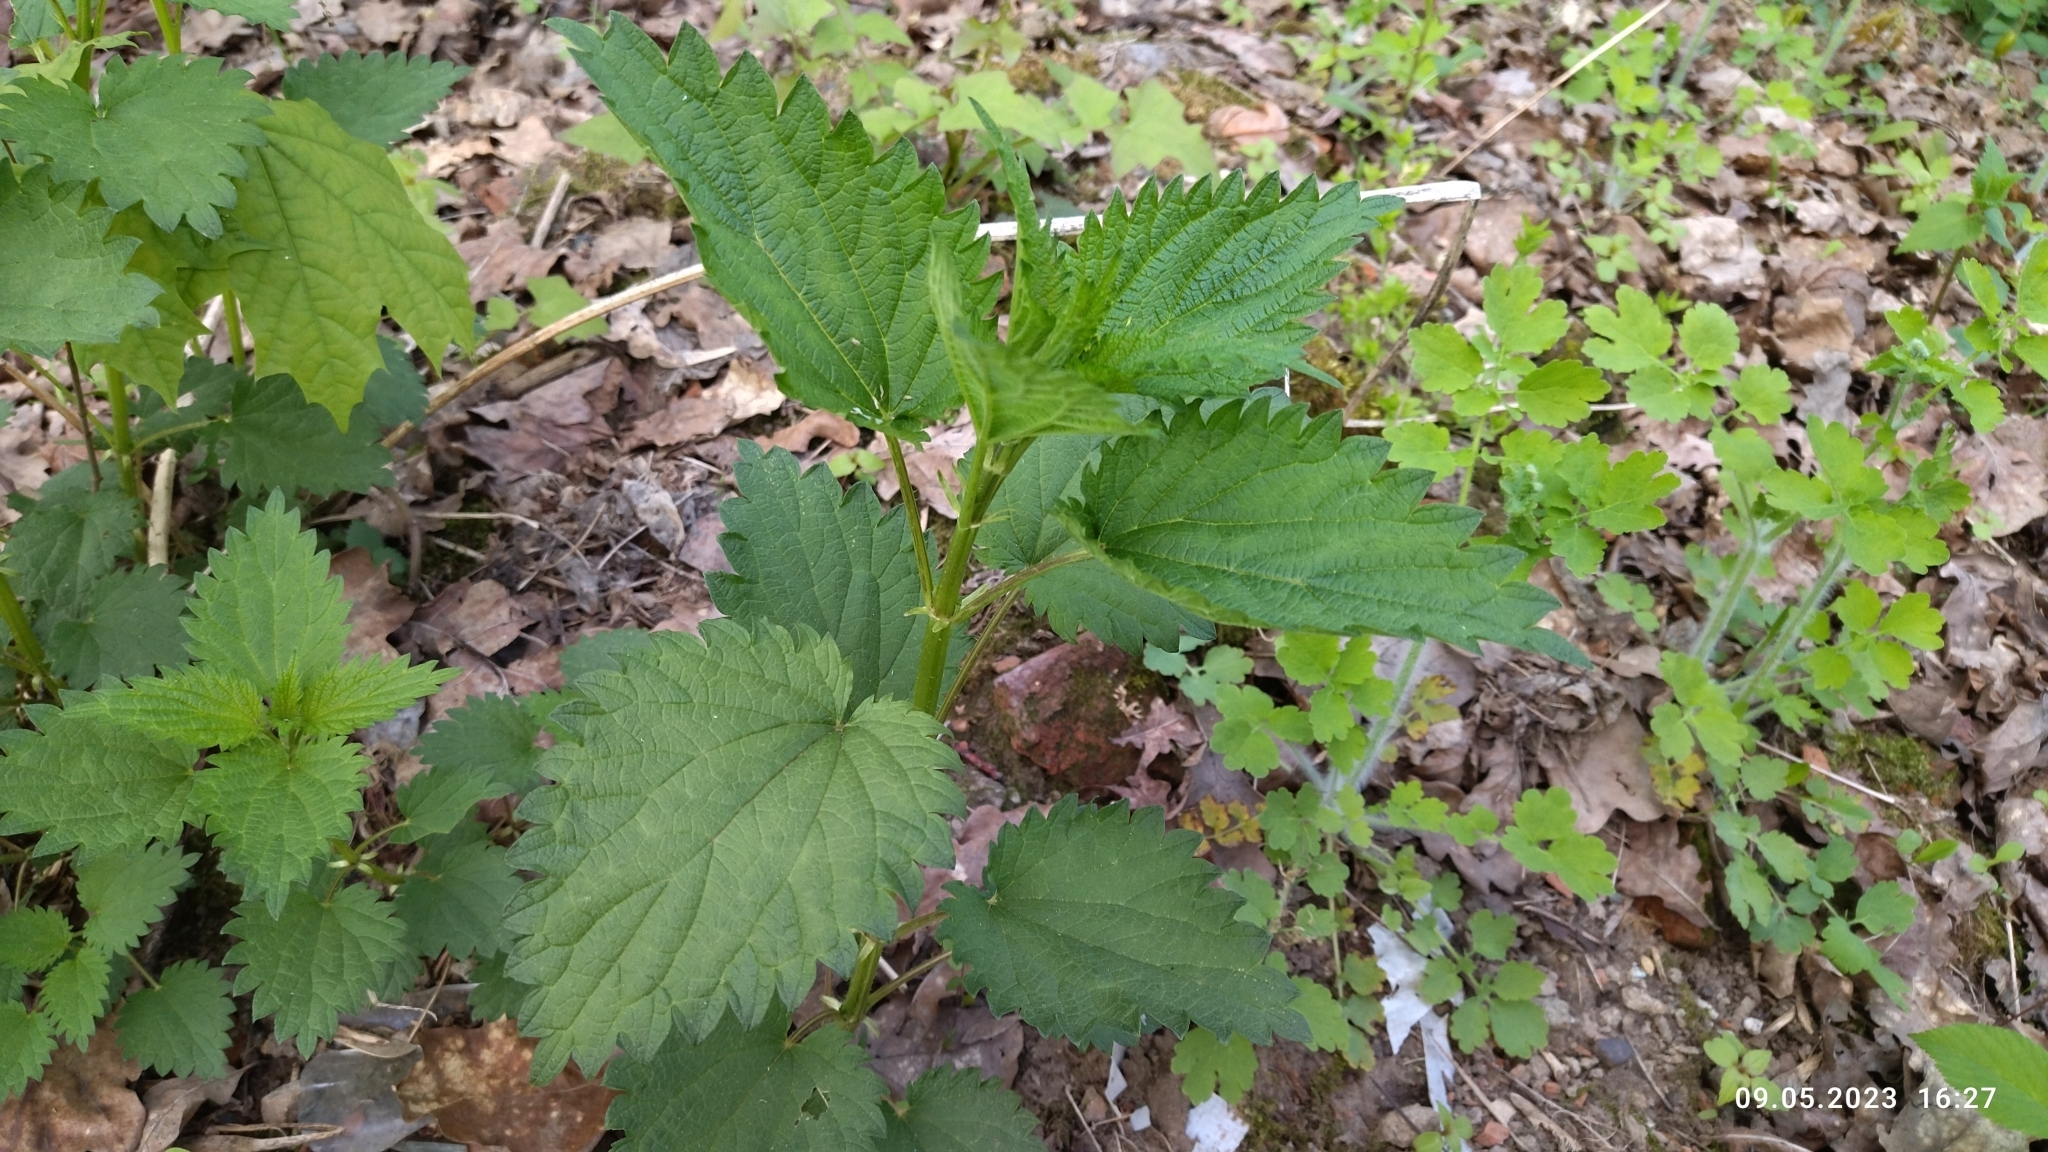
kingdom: Plantae
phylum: Tracheophyta
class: Magnoliopsida
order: Rosales
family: Urticaceae
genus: Urtica
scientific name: Urtica dioica
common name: Common nettle
